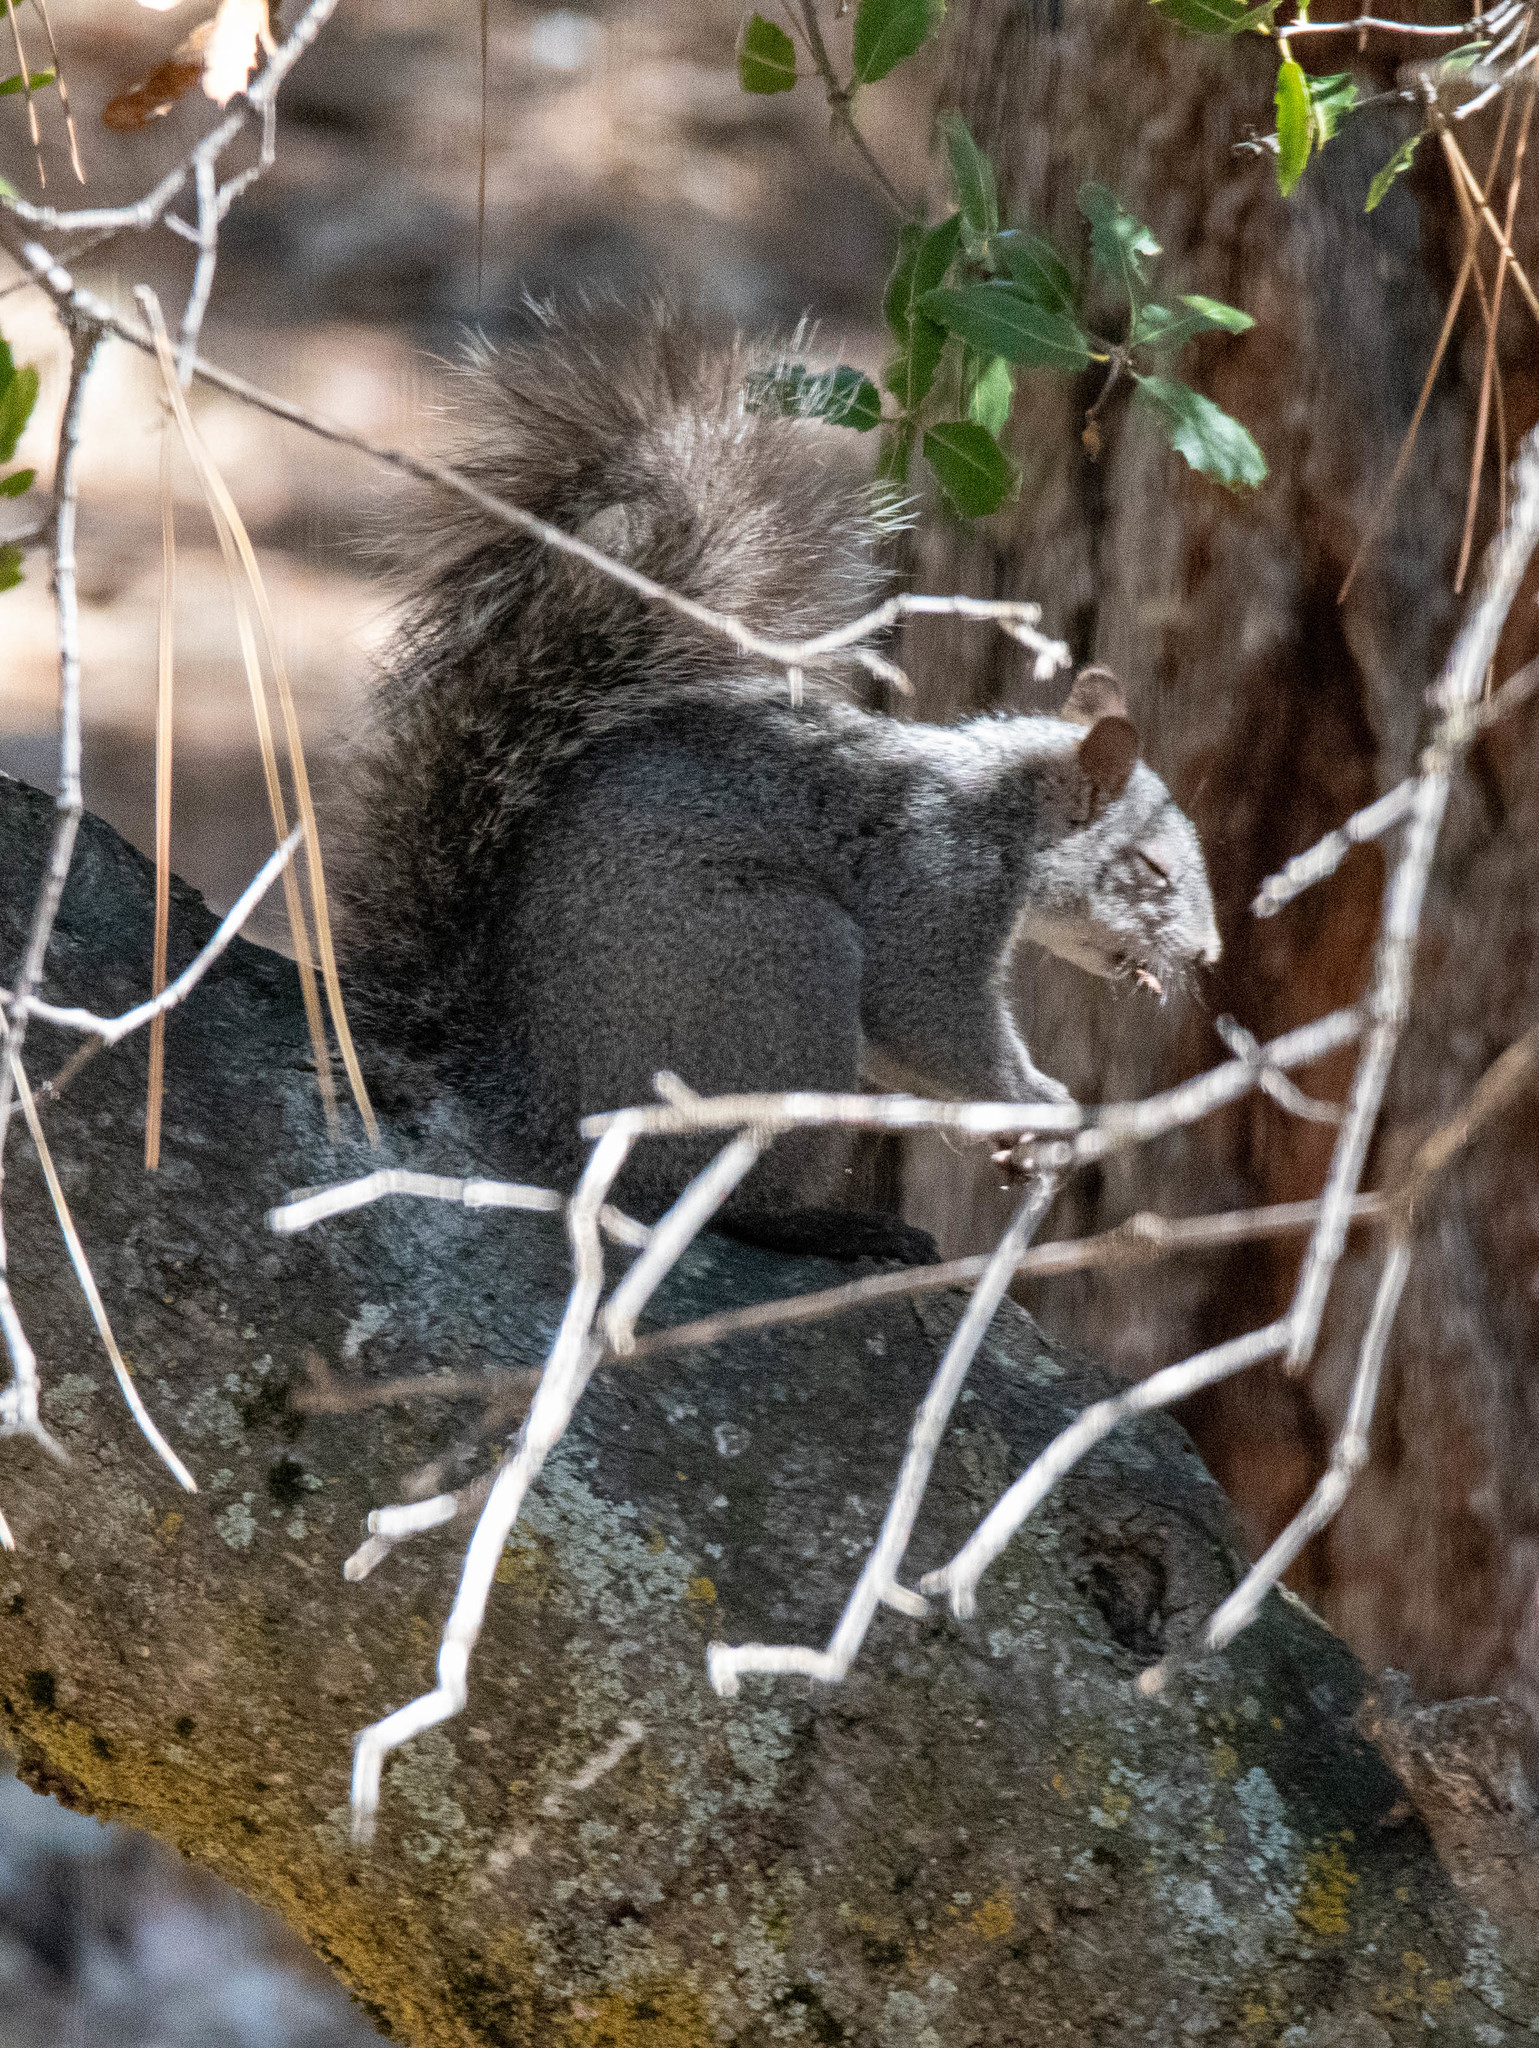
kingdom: Animalia
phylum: Chordata
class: Mammalia
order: Rodentia
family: Sciuridae
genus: Sciurus
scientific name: Sciurus griseus
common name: Western gray squirrel
